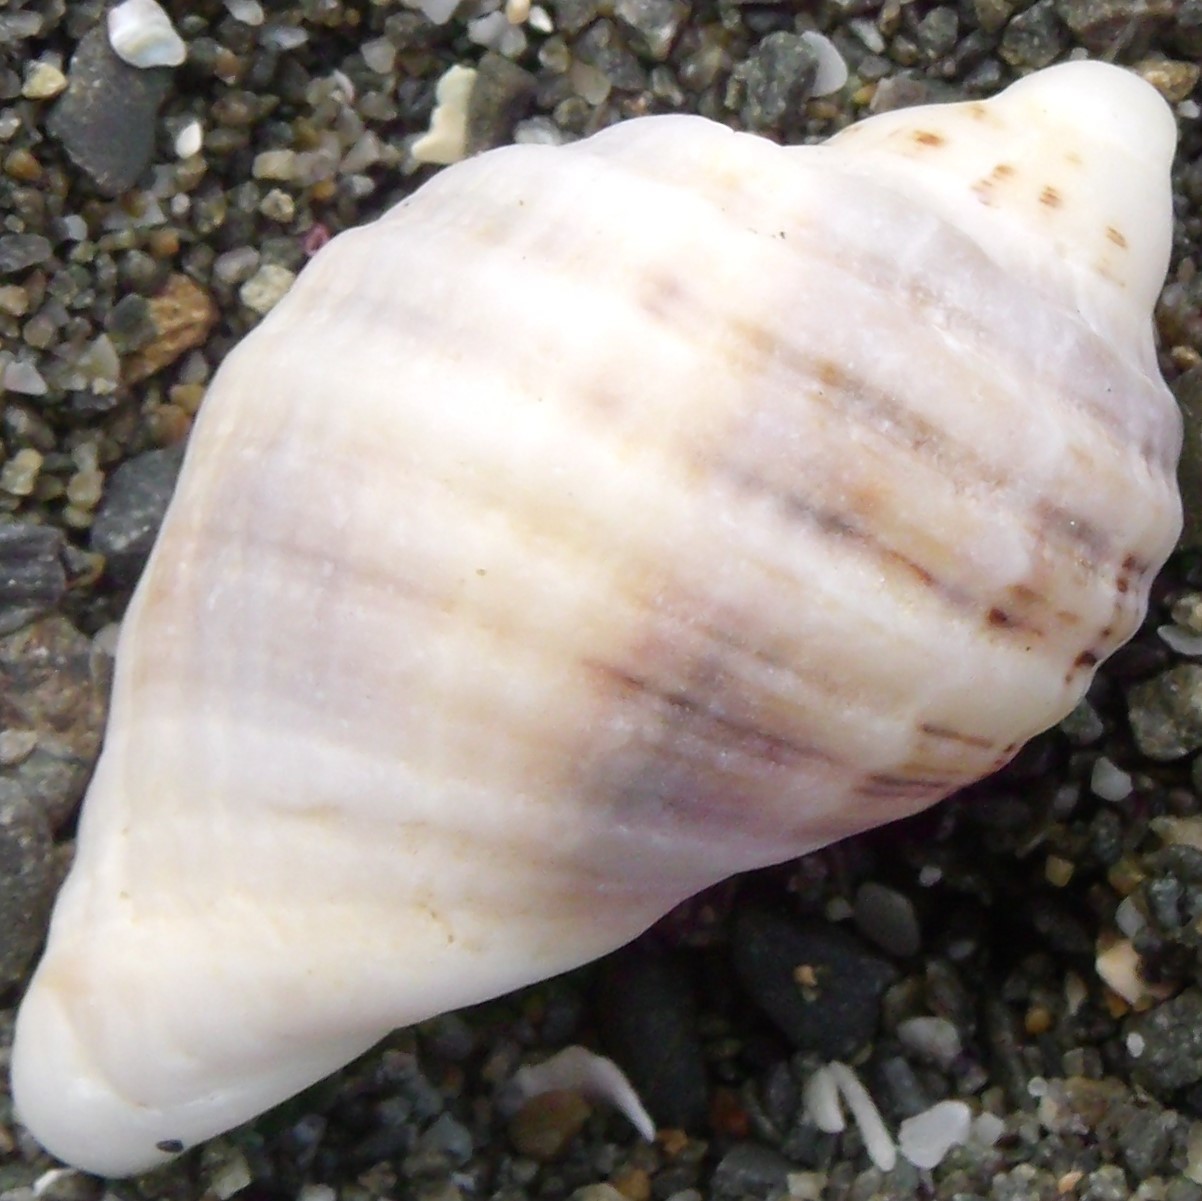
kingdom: Animalia
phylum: Mollusca
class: Gastropoda
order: Neogastropoda
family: Muricidae
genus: Dicathais
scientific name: Dicathais orbita
